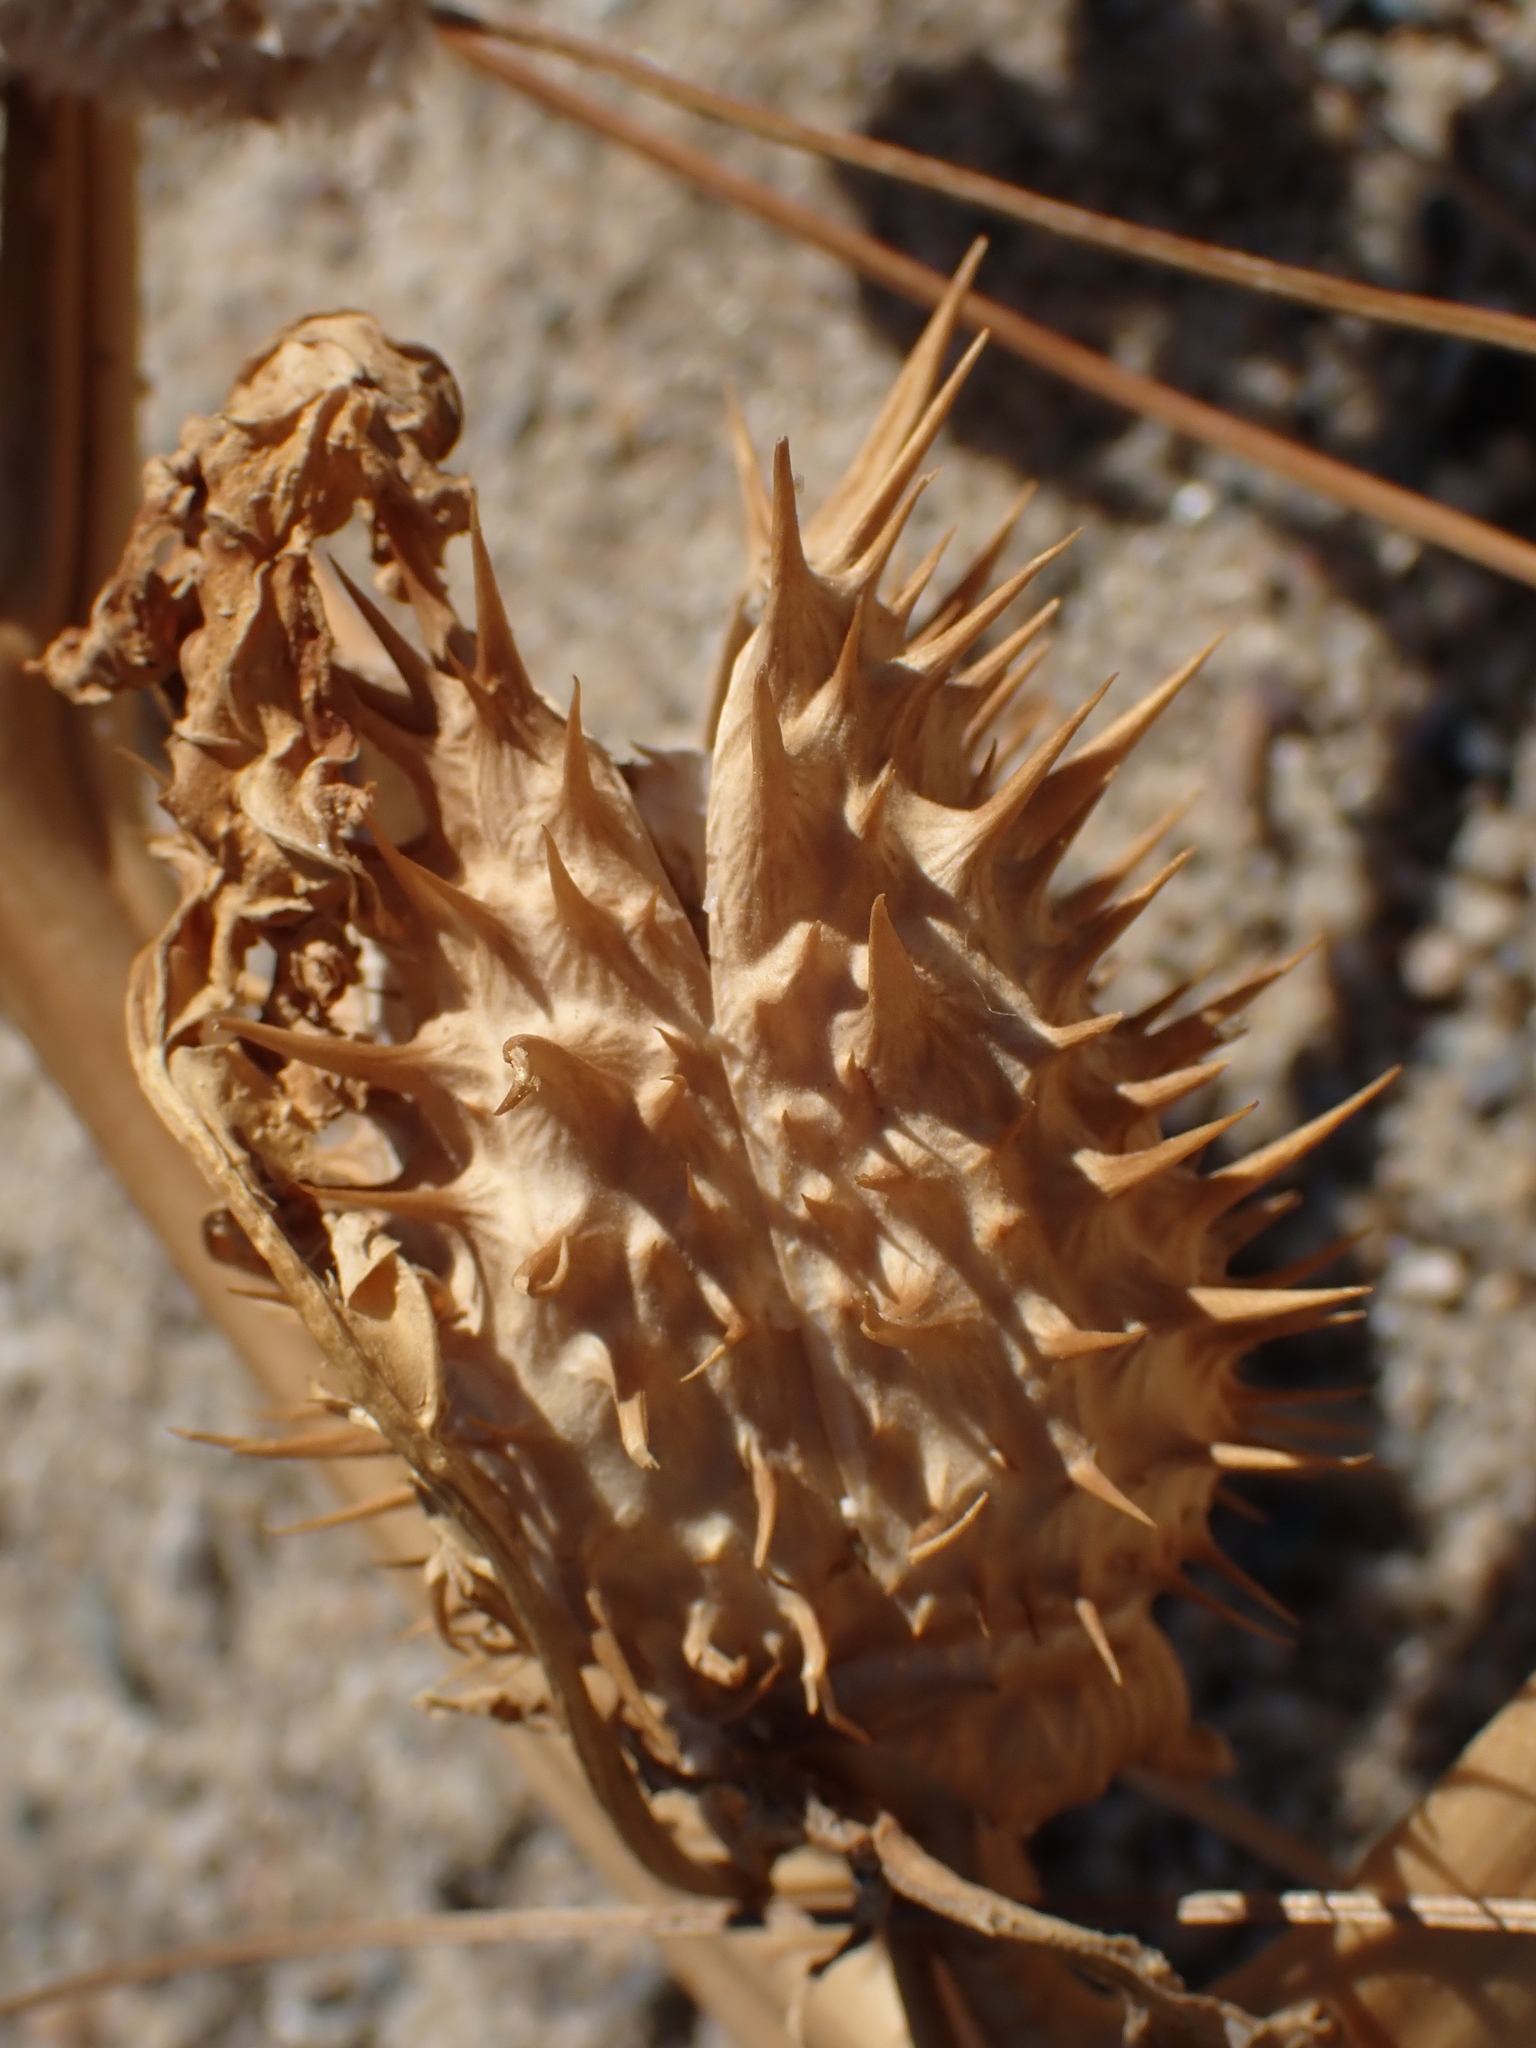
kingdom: Plantae
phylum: Tracheophyta
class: Magnoliopsida
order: Solanales
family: Solanaceae
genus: Datura
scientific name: Datura stramonium
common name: Thorn-apple
